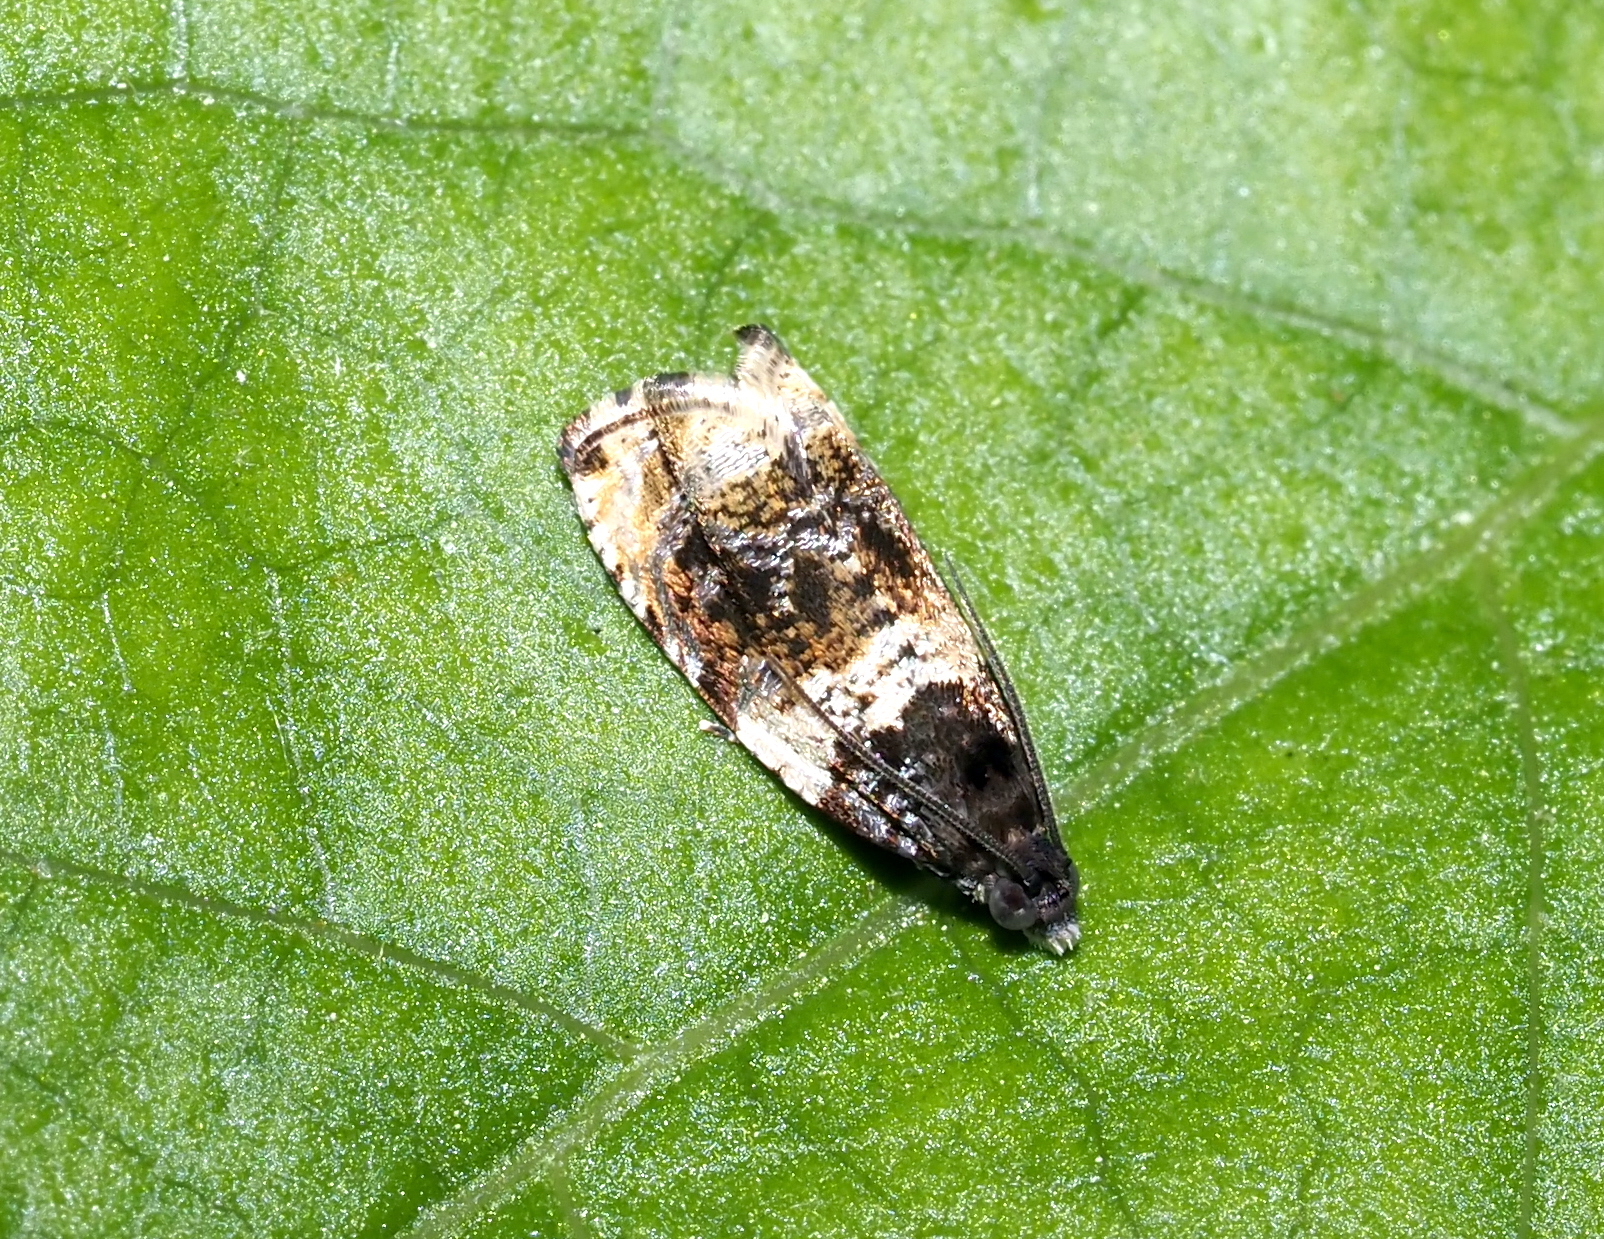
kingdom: Animalia
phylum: Arthropoda
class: Insecta
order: Lepidoptera
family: Tortricidae
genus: Olethreutes
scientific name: Olethreutes fasciatana
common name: Banded olethreutes moth
